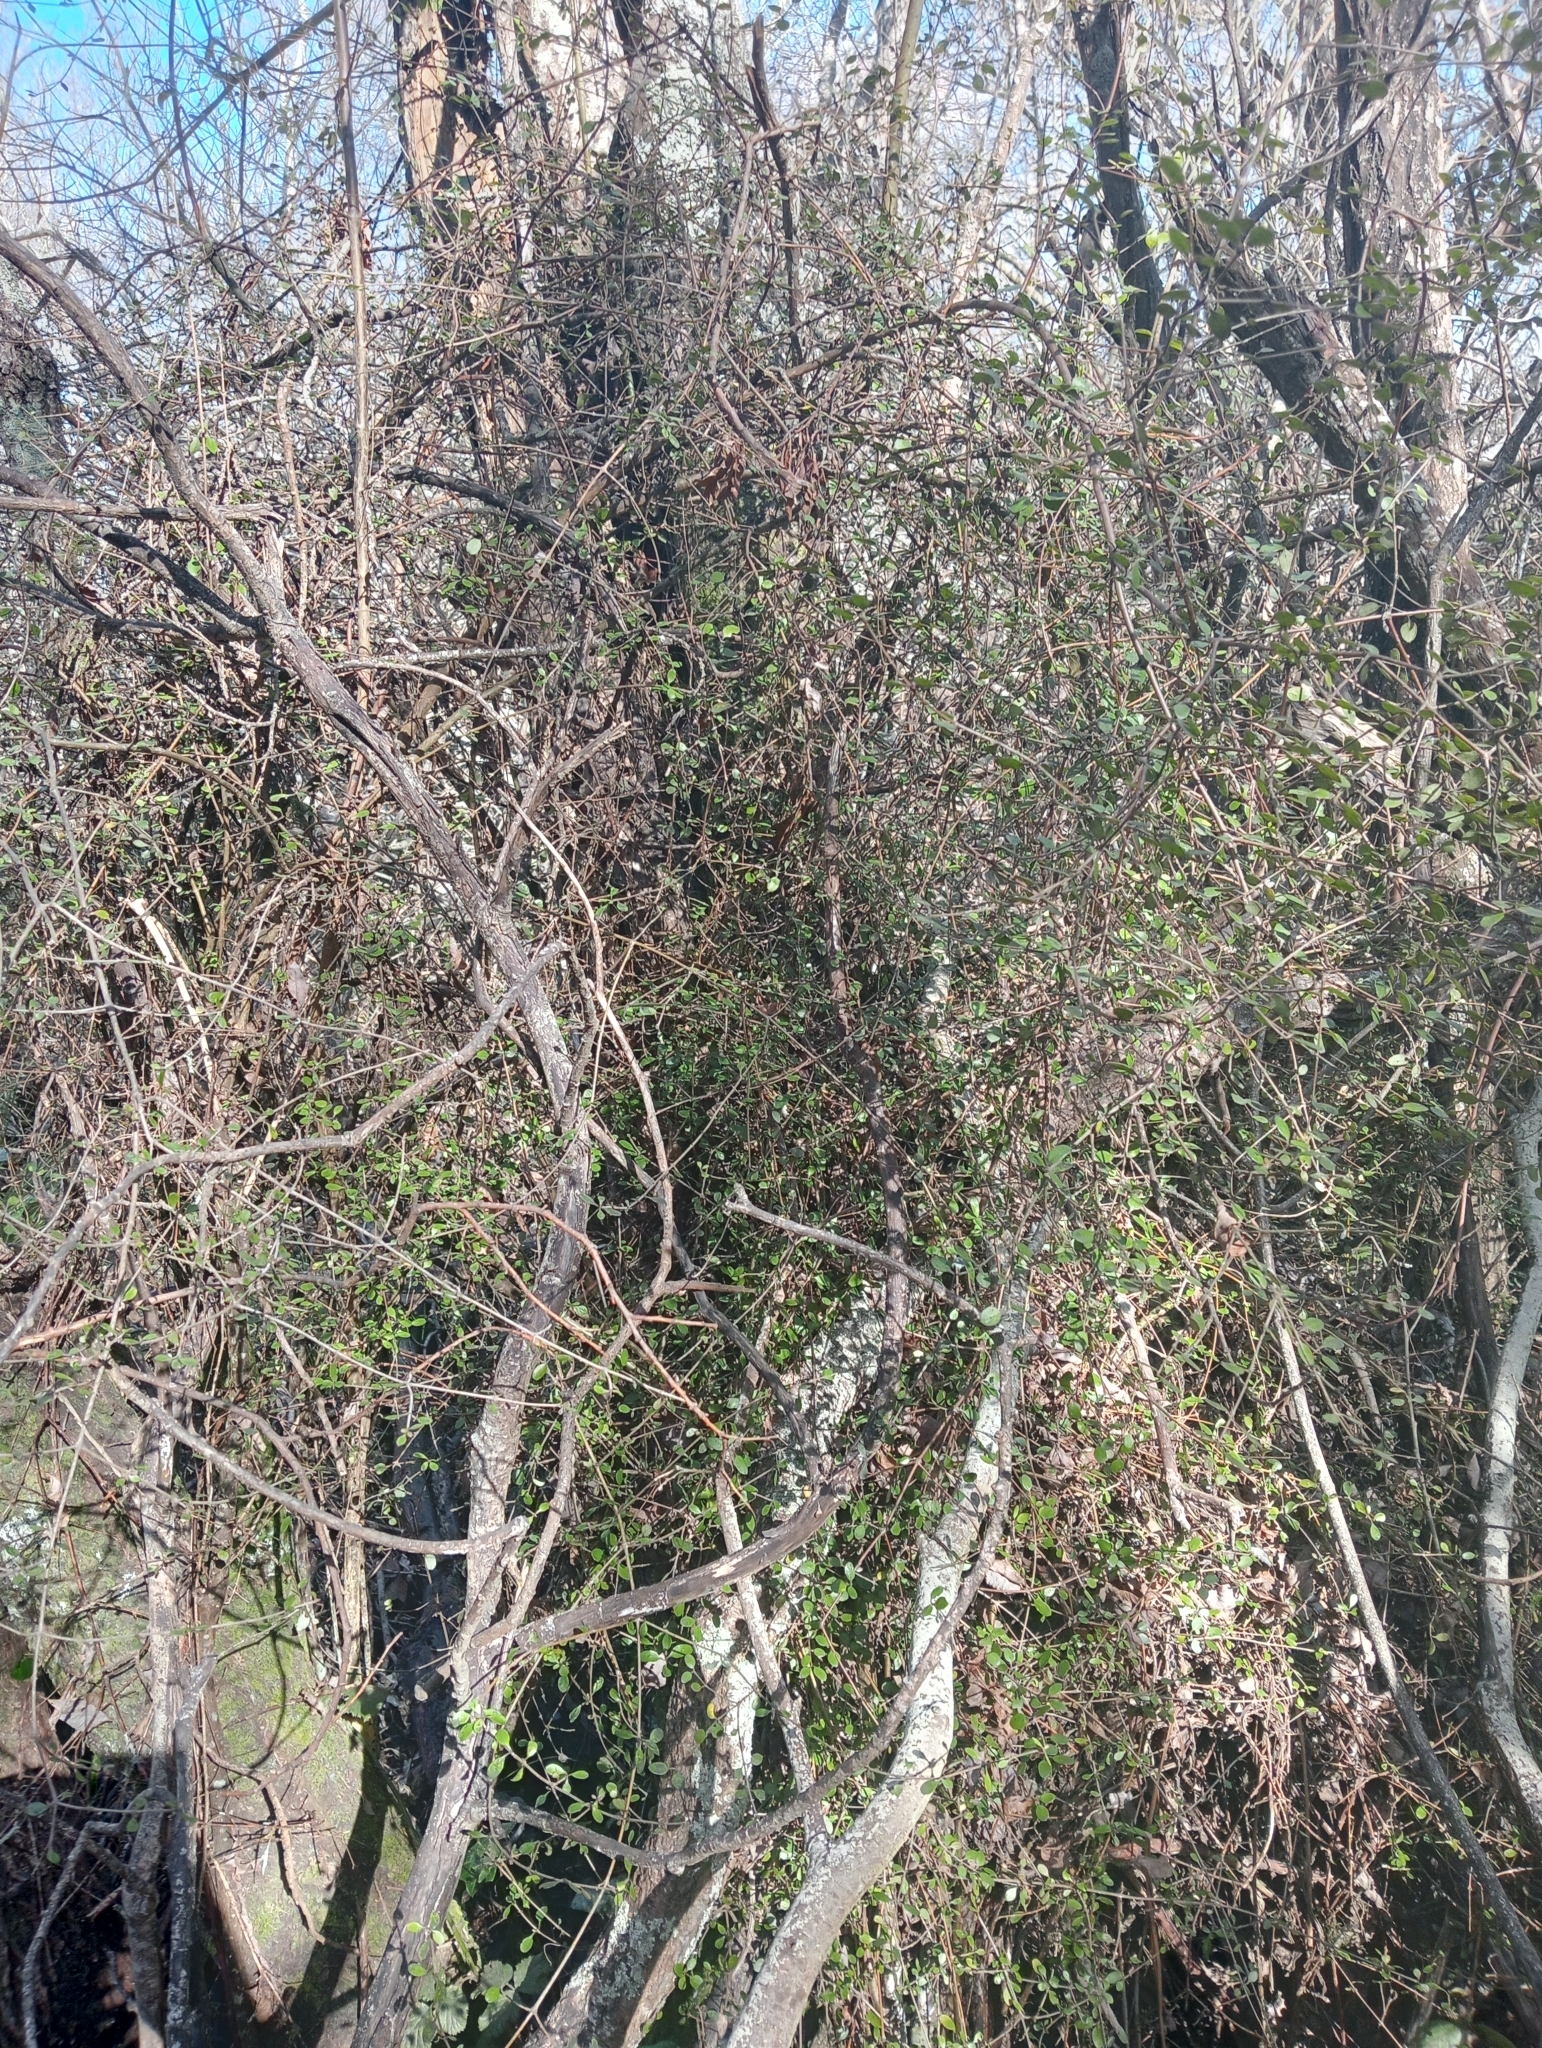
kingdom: Plantae
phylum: Tracheophyta
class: Magnoliopsida
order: Gentianales
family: Rubiaceae
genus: Coprosma
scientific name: Coprosma crassifolia
